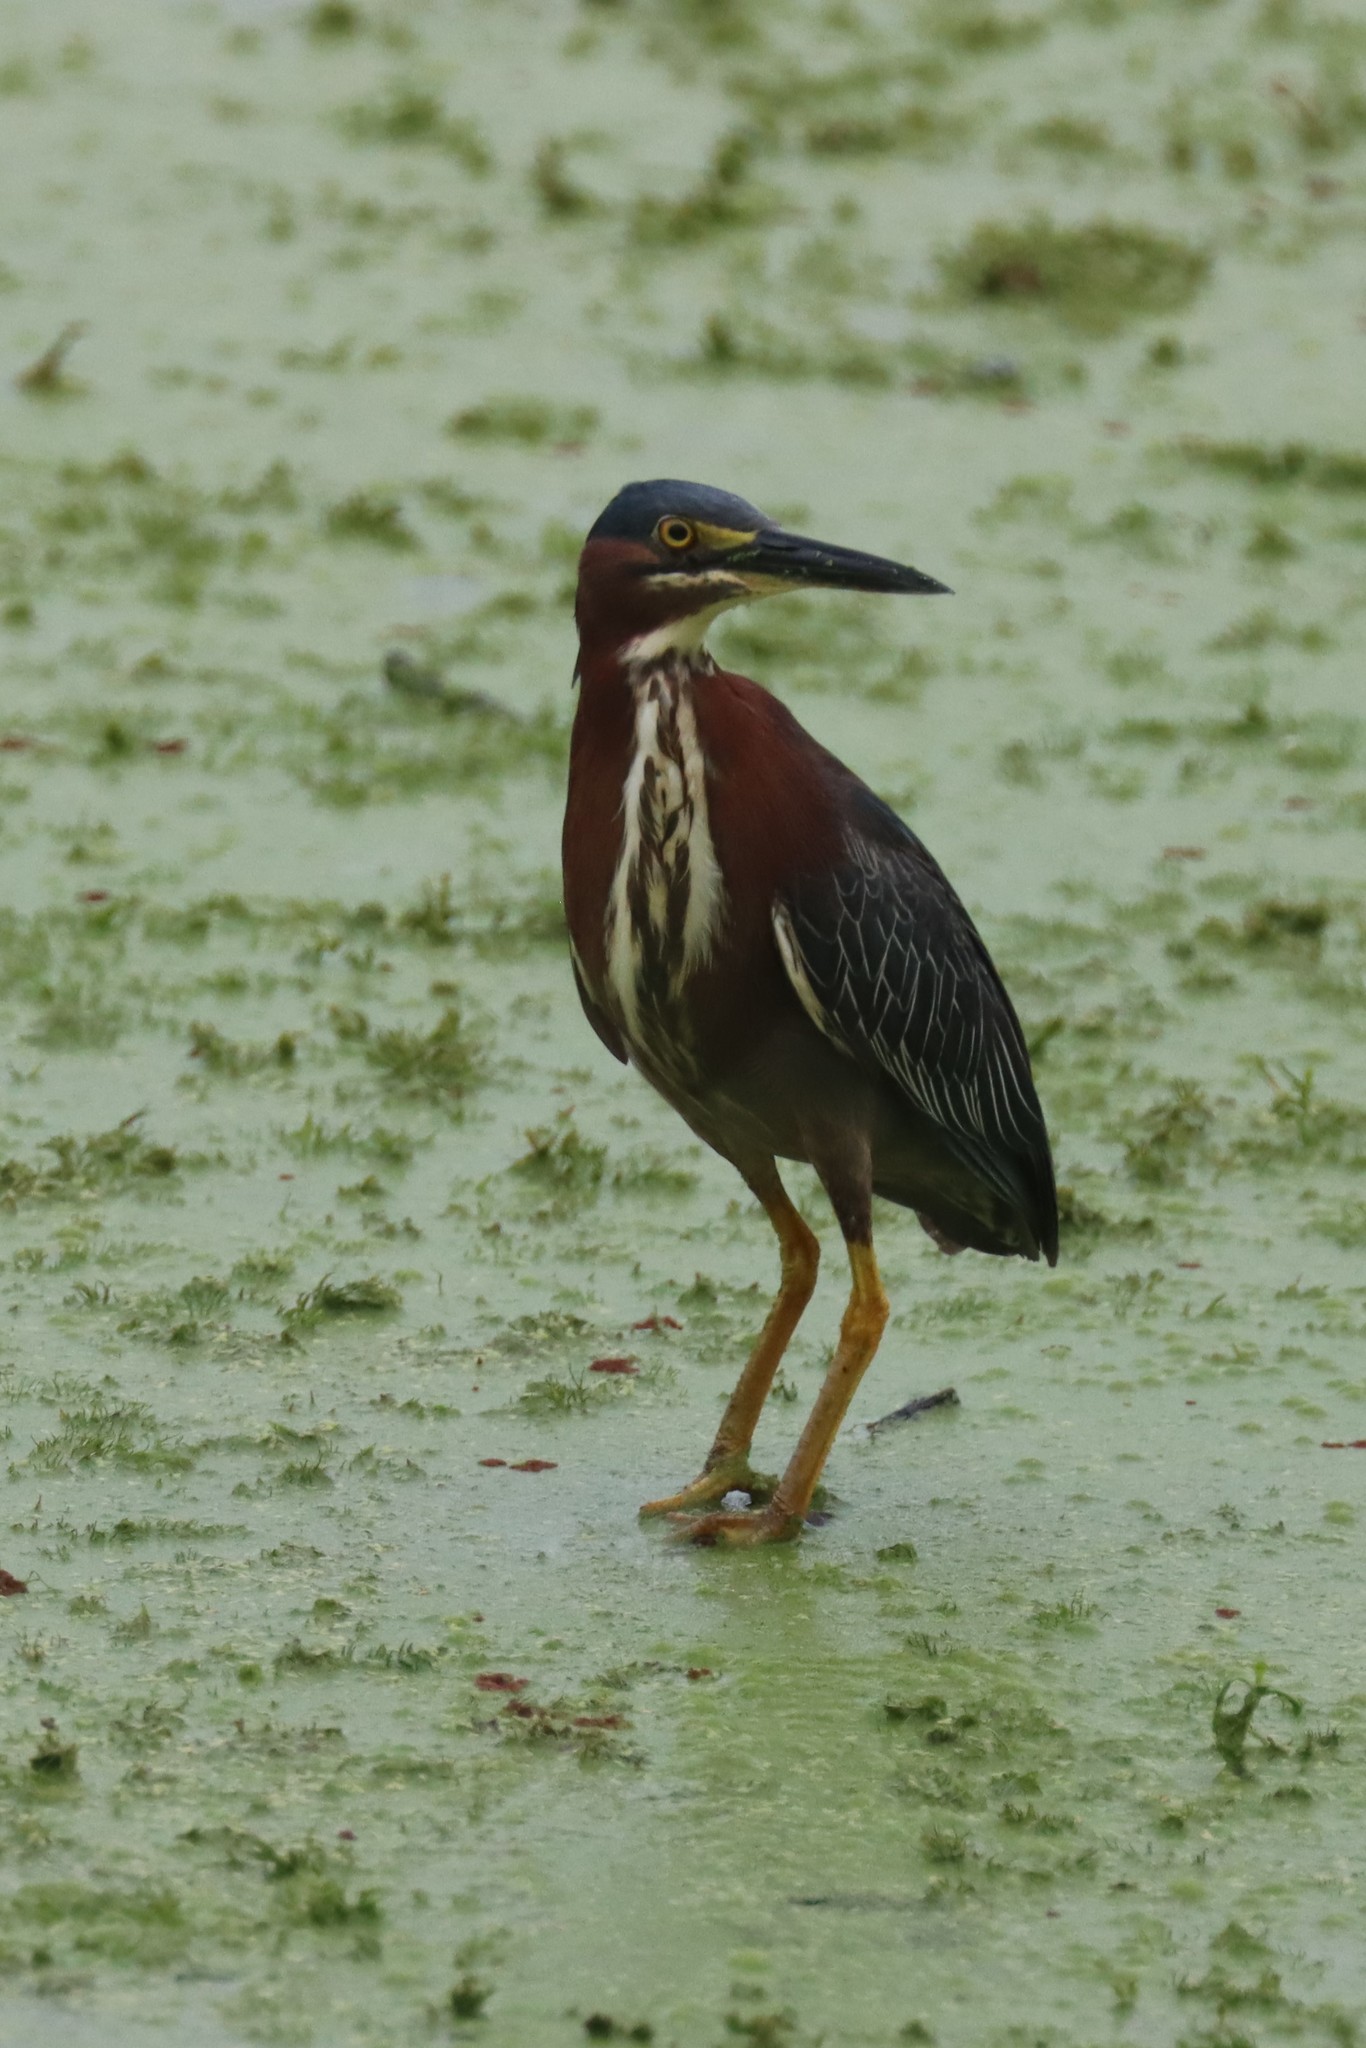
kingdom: Animalia
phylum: Chordata
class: Aves
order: Pelecaniformes
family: Ardeidae
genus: Butorides
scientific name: Butorides virescens
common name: Green heron
